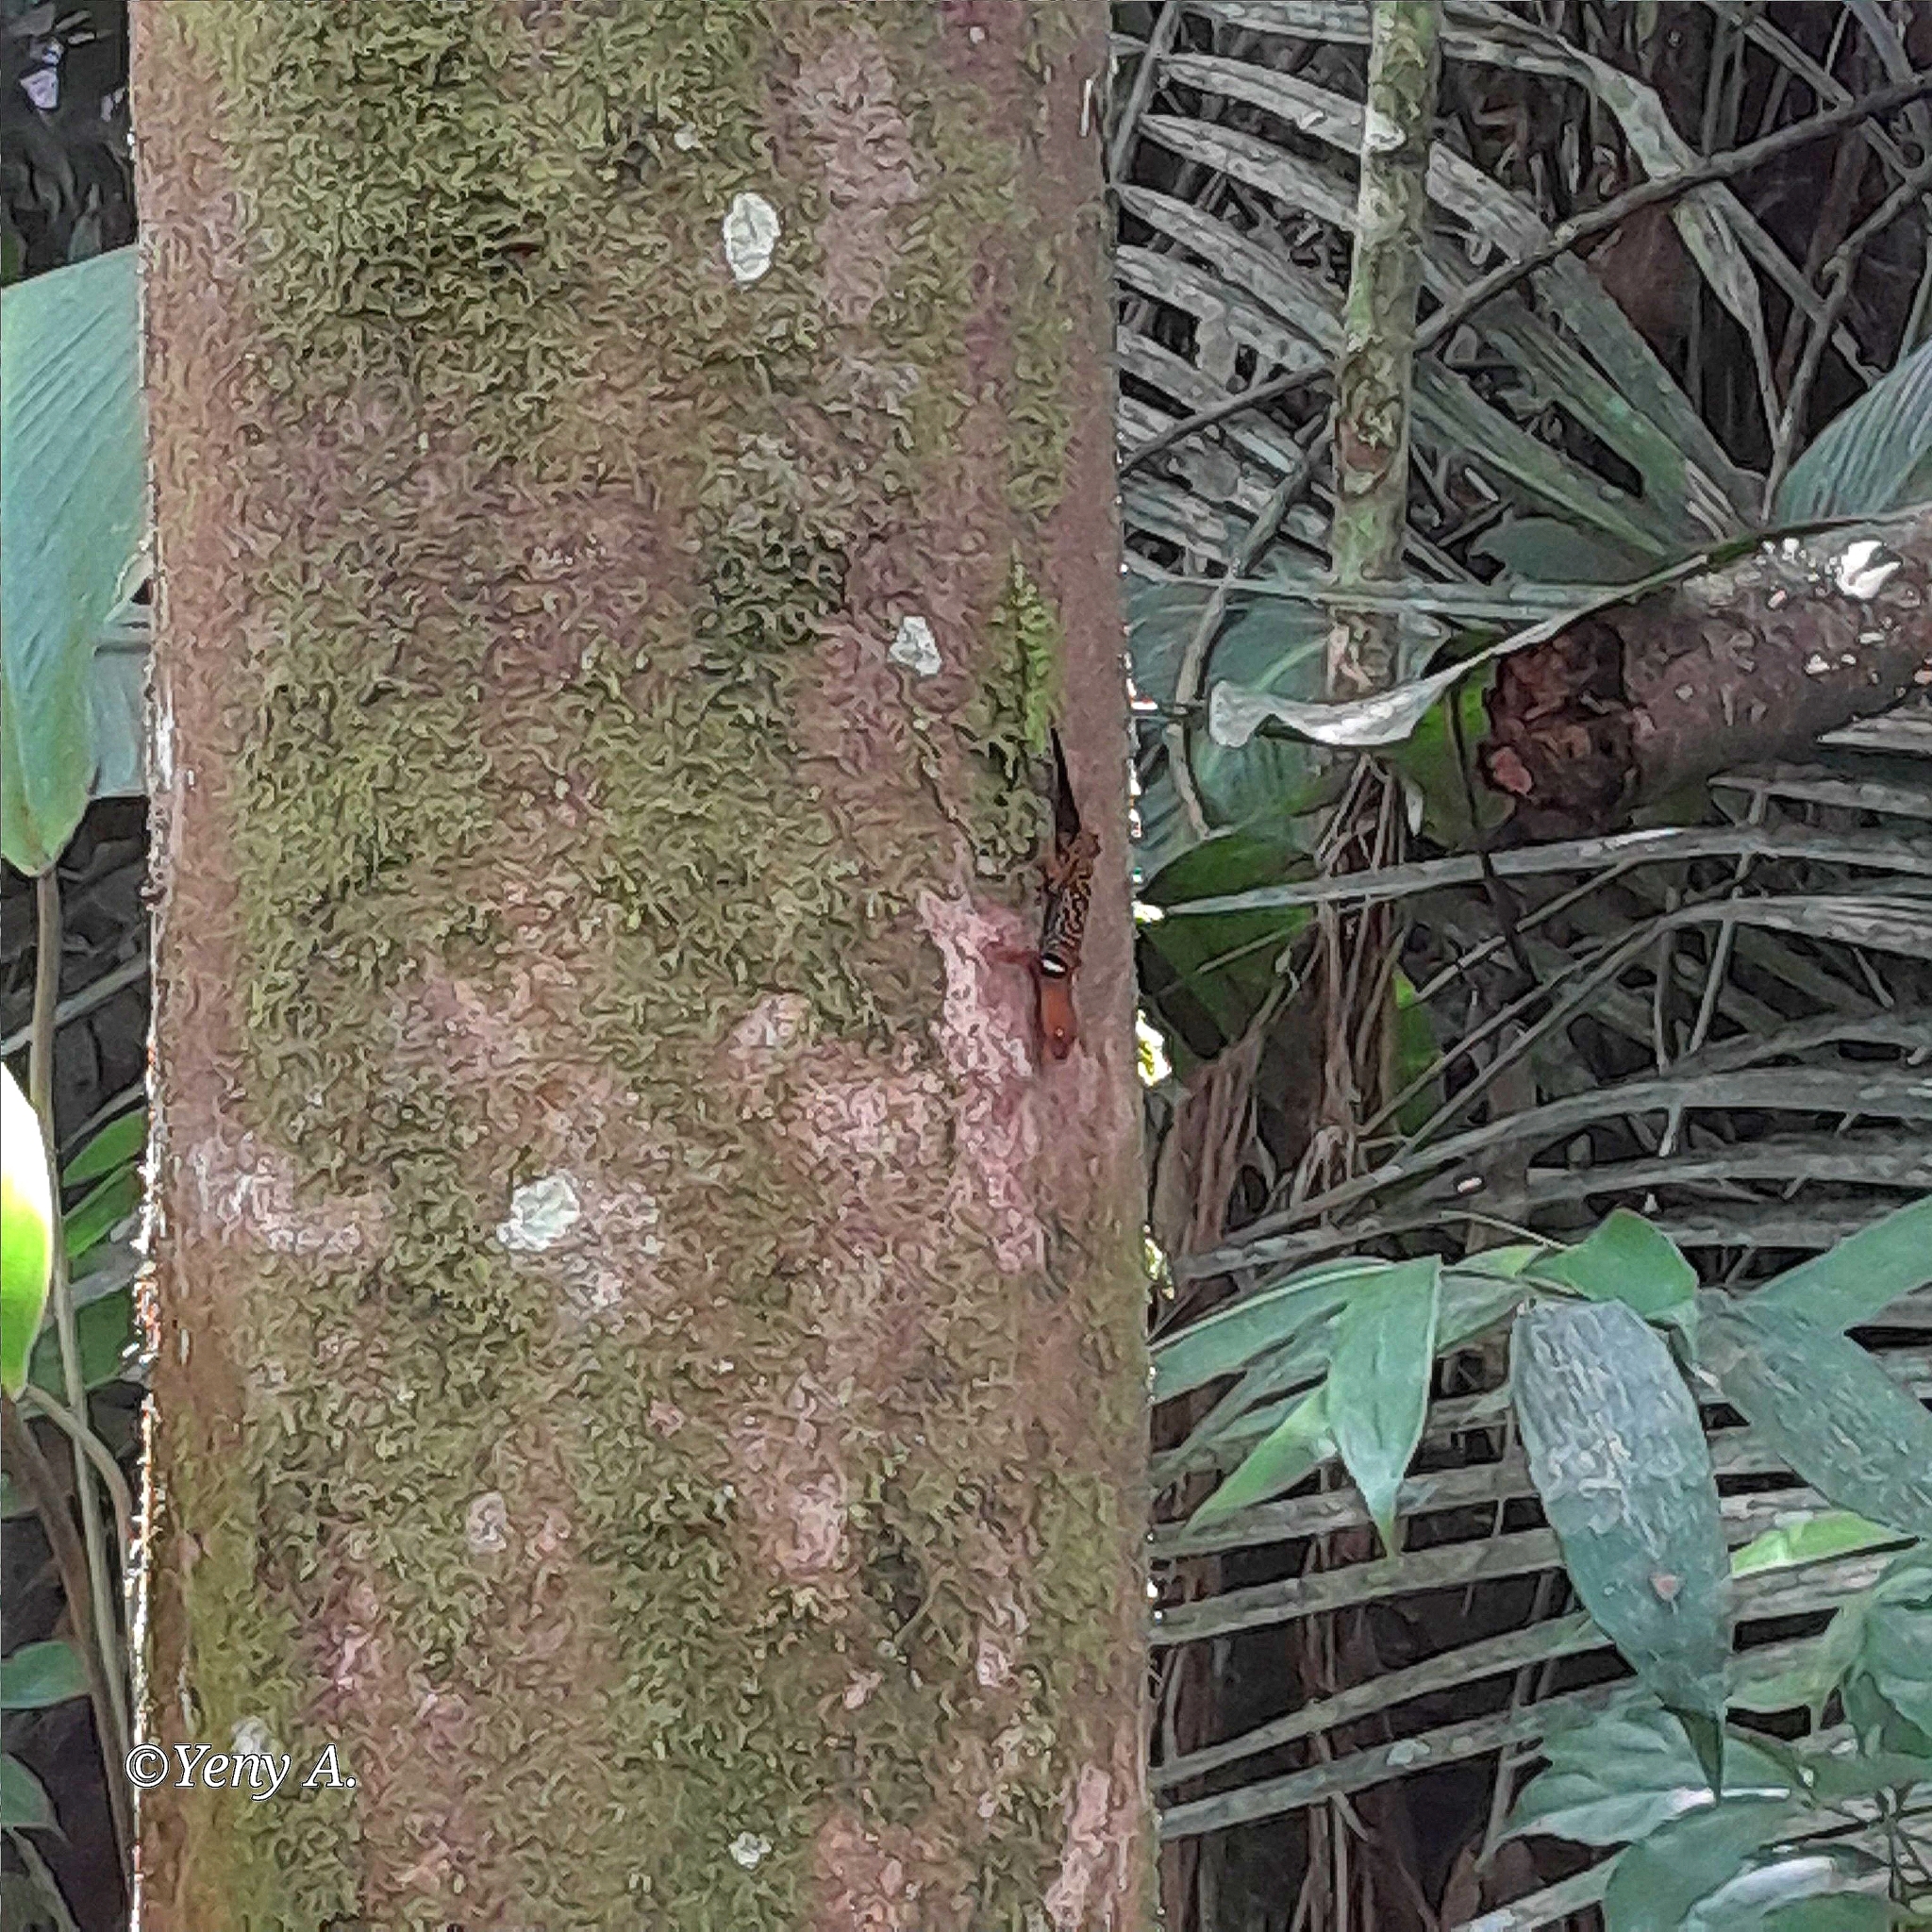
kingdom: Animalia
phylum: Chordata
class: Squamata
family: Sphaerodactylidae
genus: Gonatodes
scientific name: Gonatodes concinnatus
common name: O'shaughnessy's gecko
